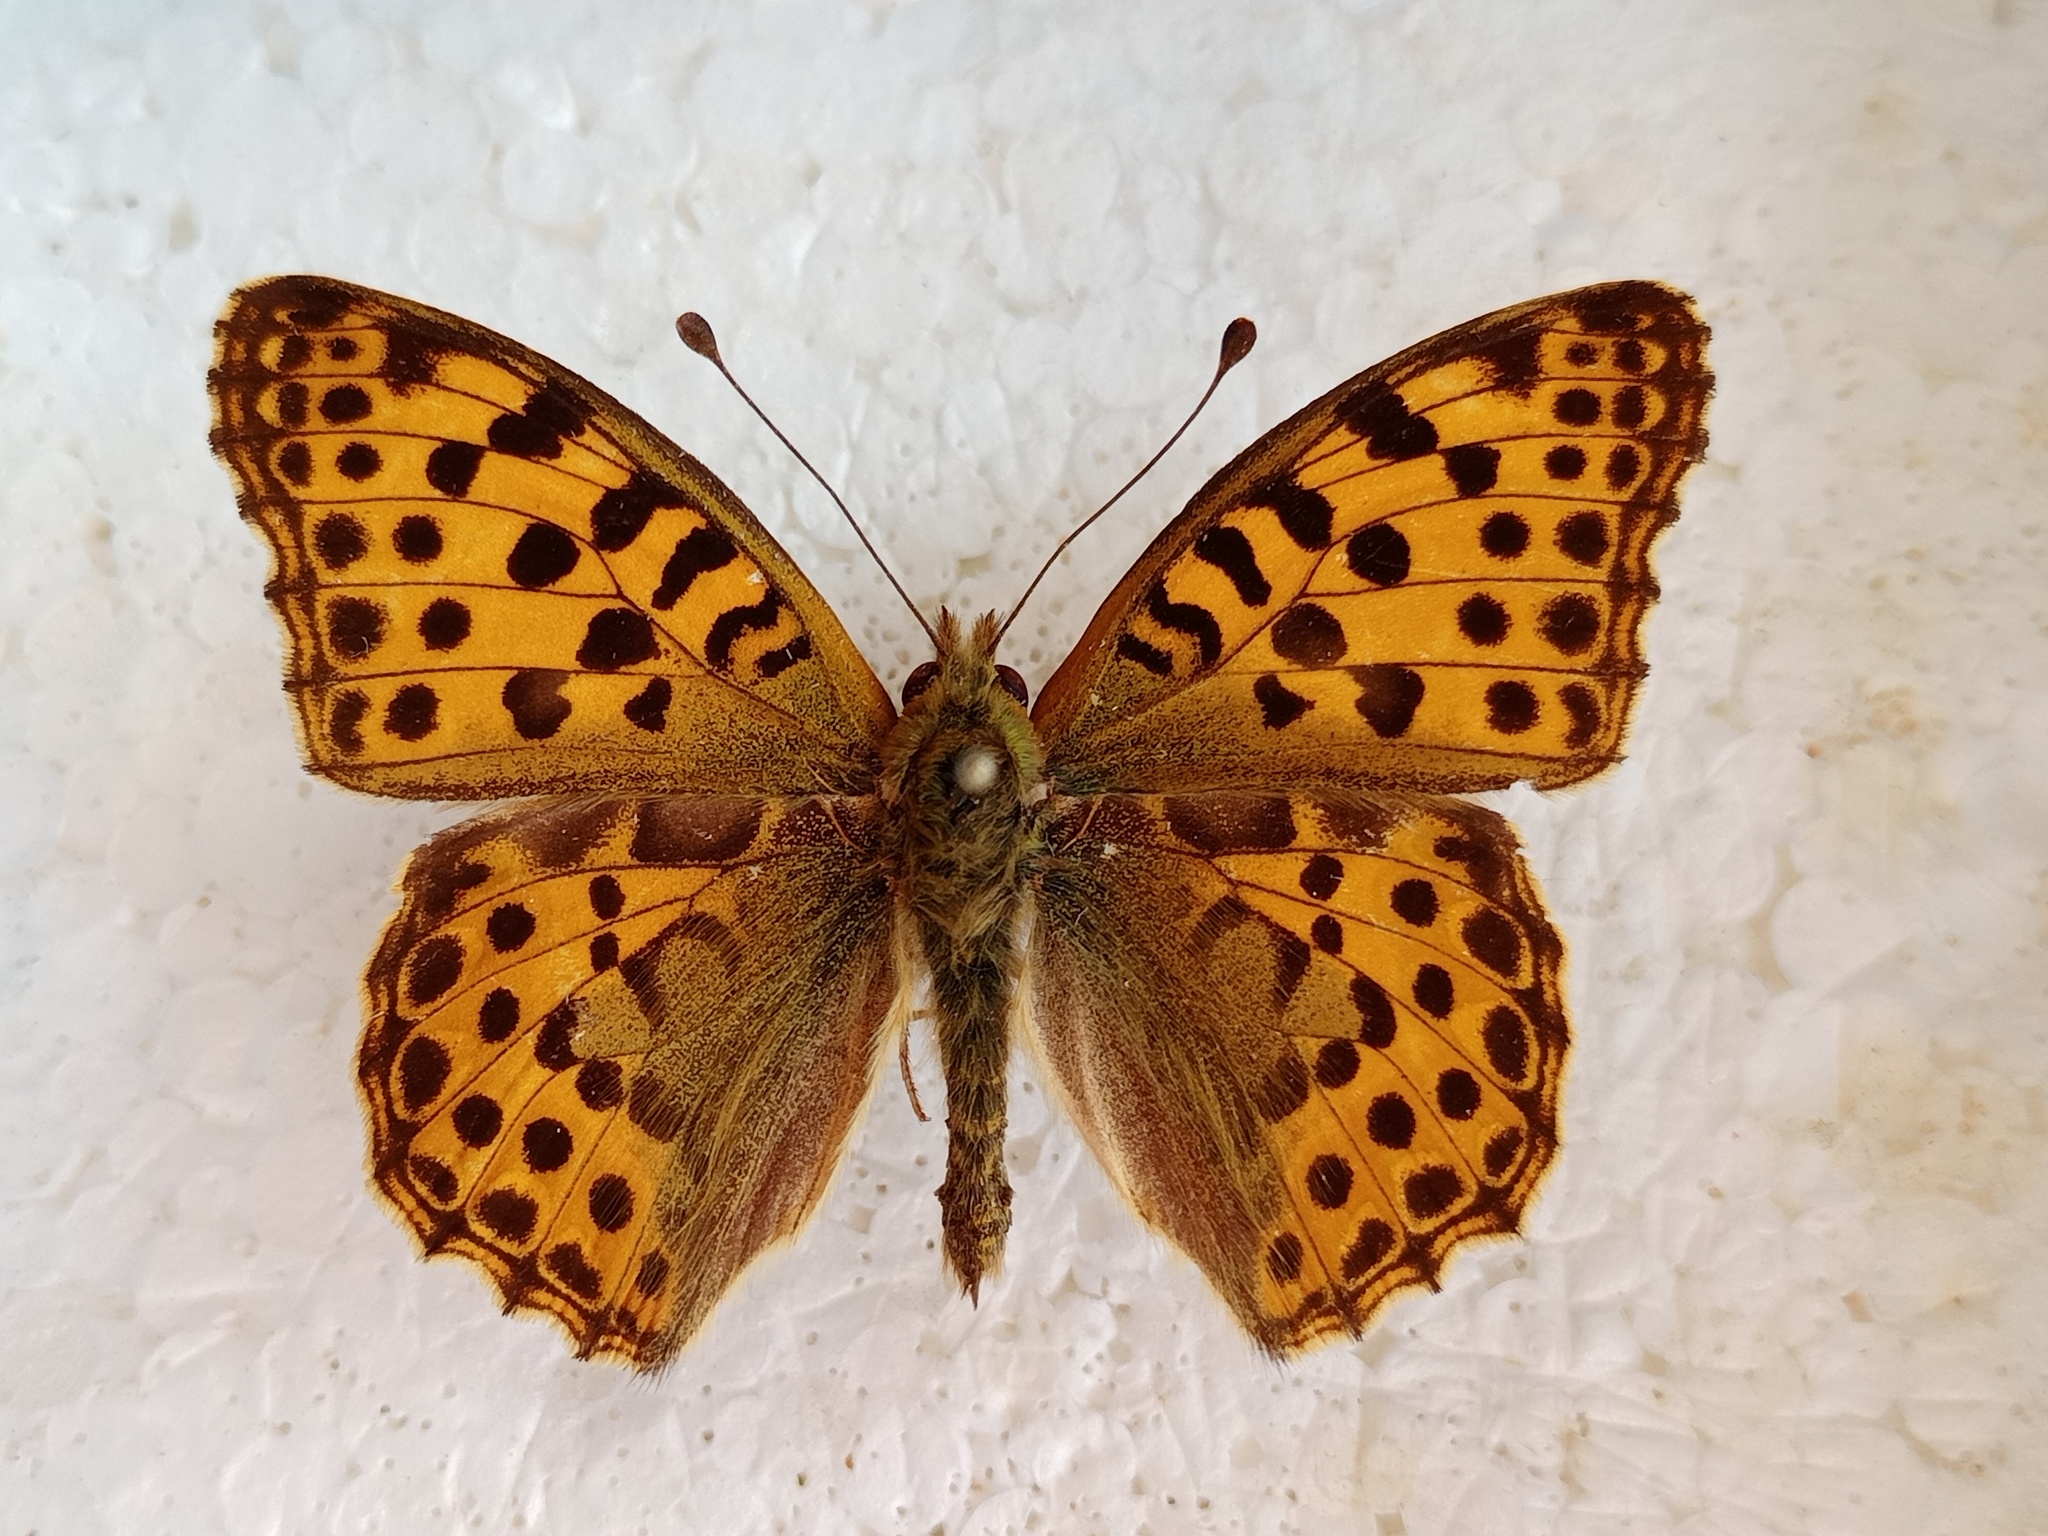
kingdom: Animalia
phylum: Arthropoda
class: Insecta
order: Lepidoptera
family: Nymphalidae
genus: Issoria
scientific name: Issoria lathonia
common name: Queen of spain fritillary
